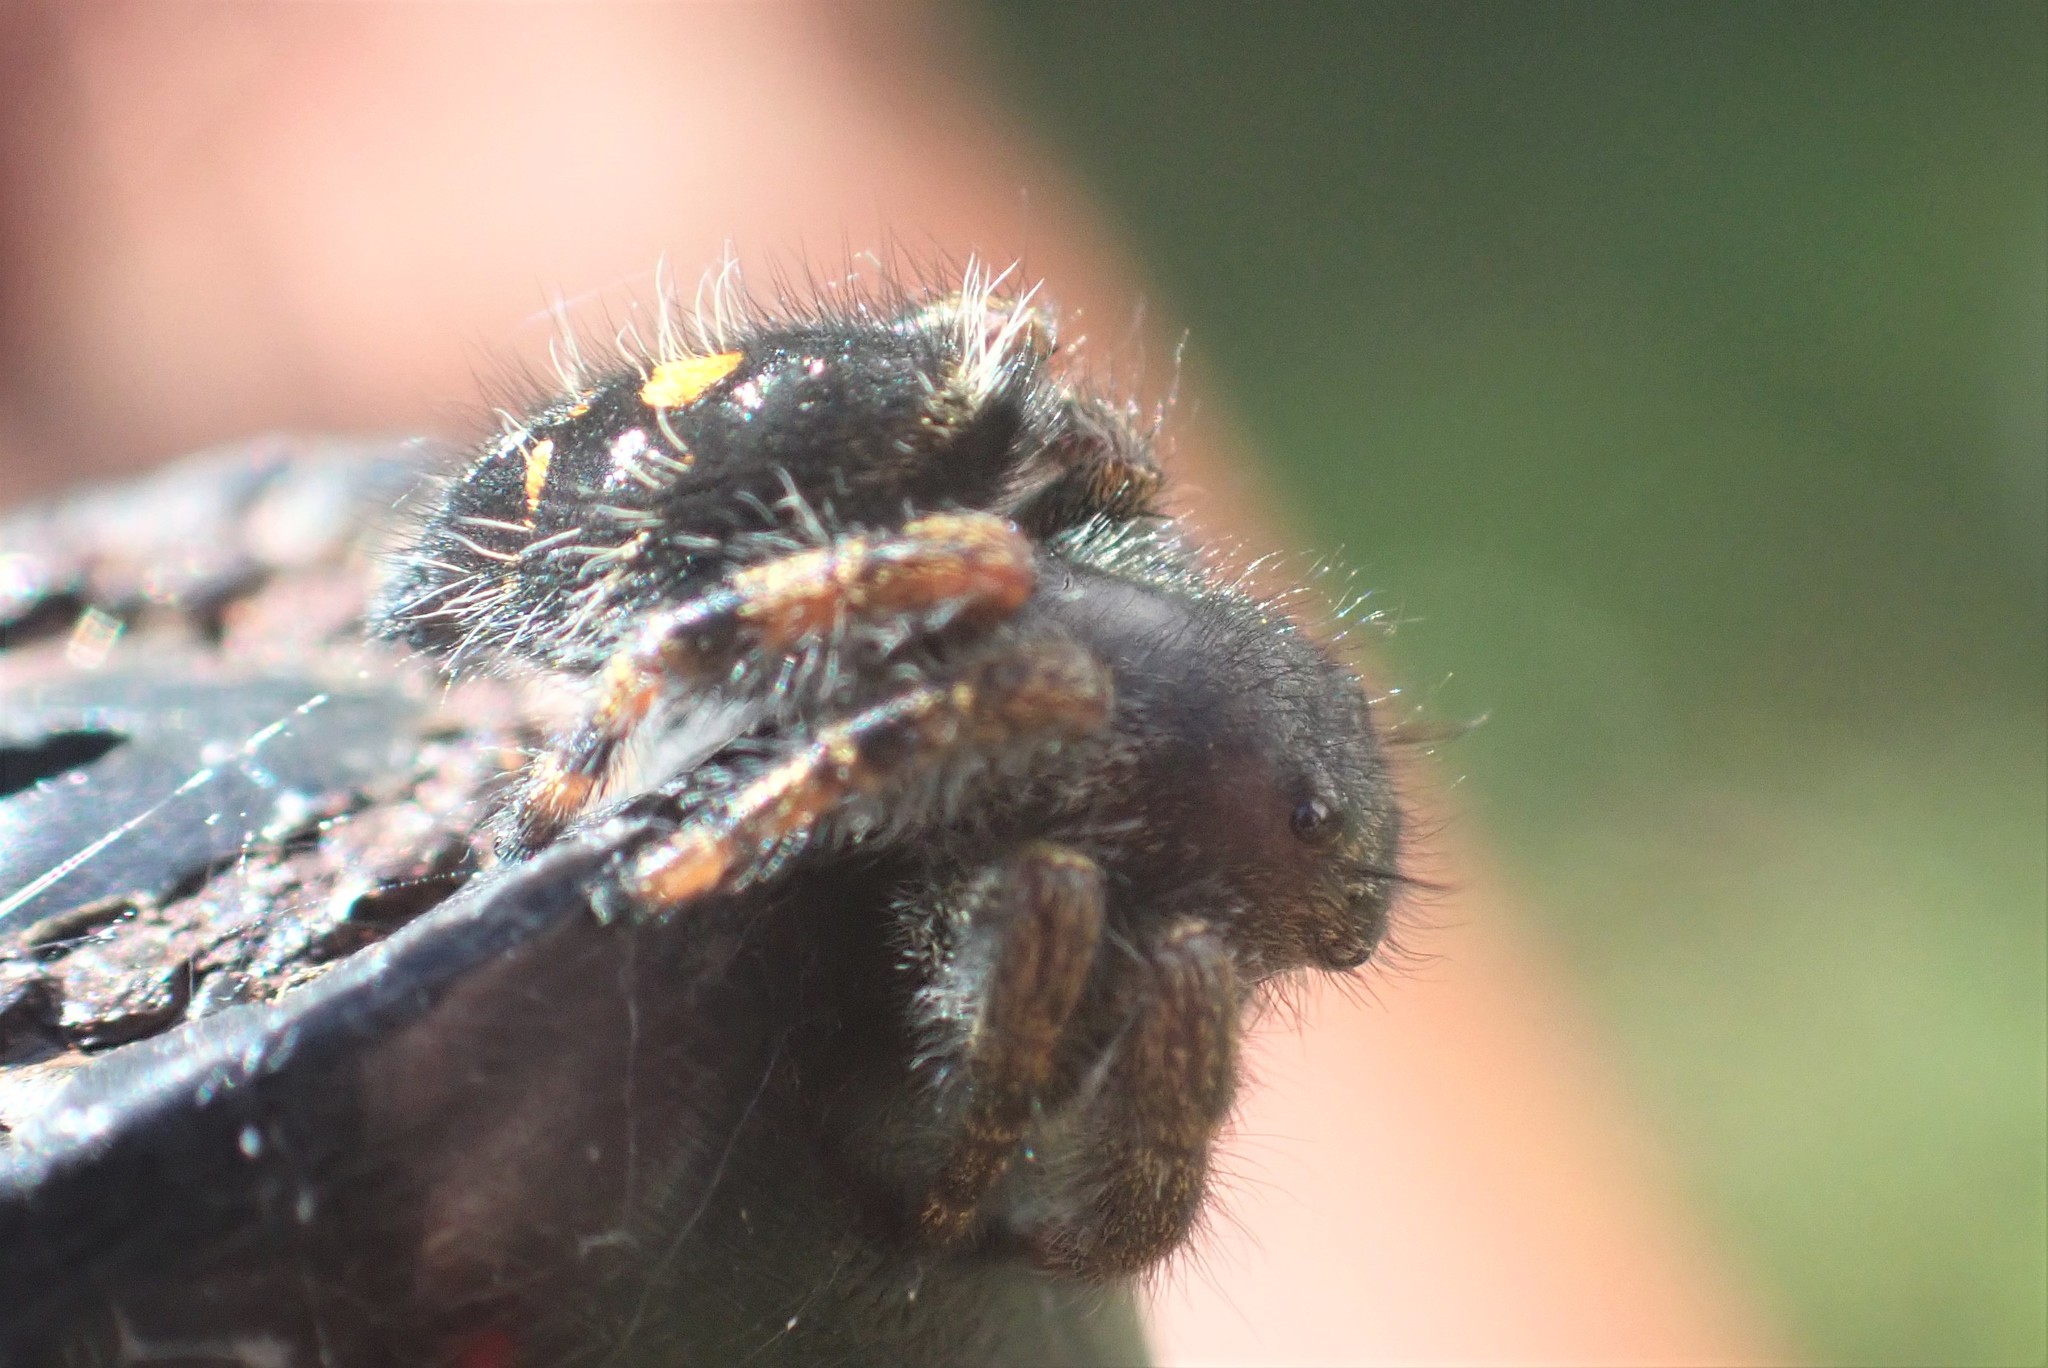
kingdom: Animalia
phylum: Arthropoda
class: Arachnida
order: Araneae
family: Salticidae
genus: Phidippus
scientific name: Phidippus audax
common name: Bold jumper
